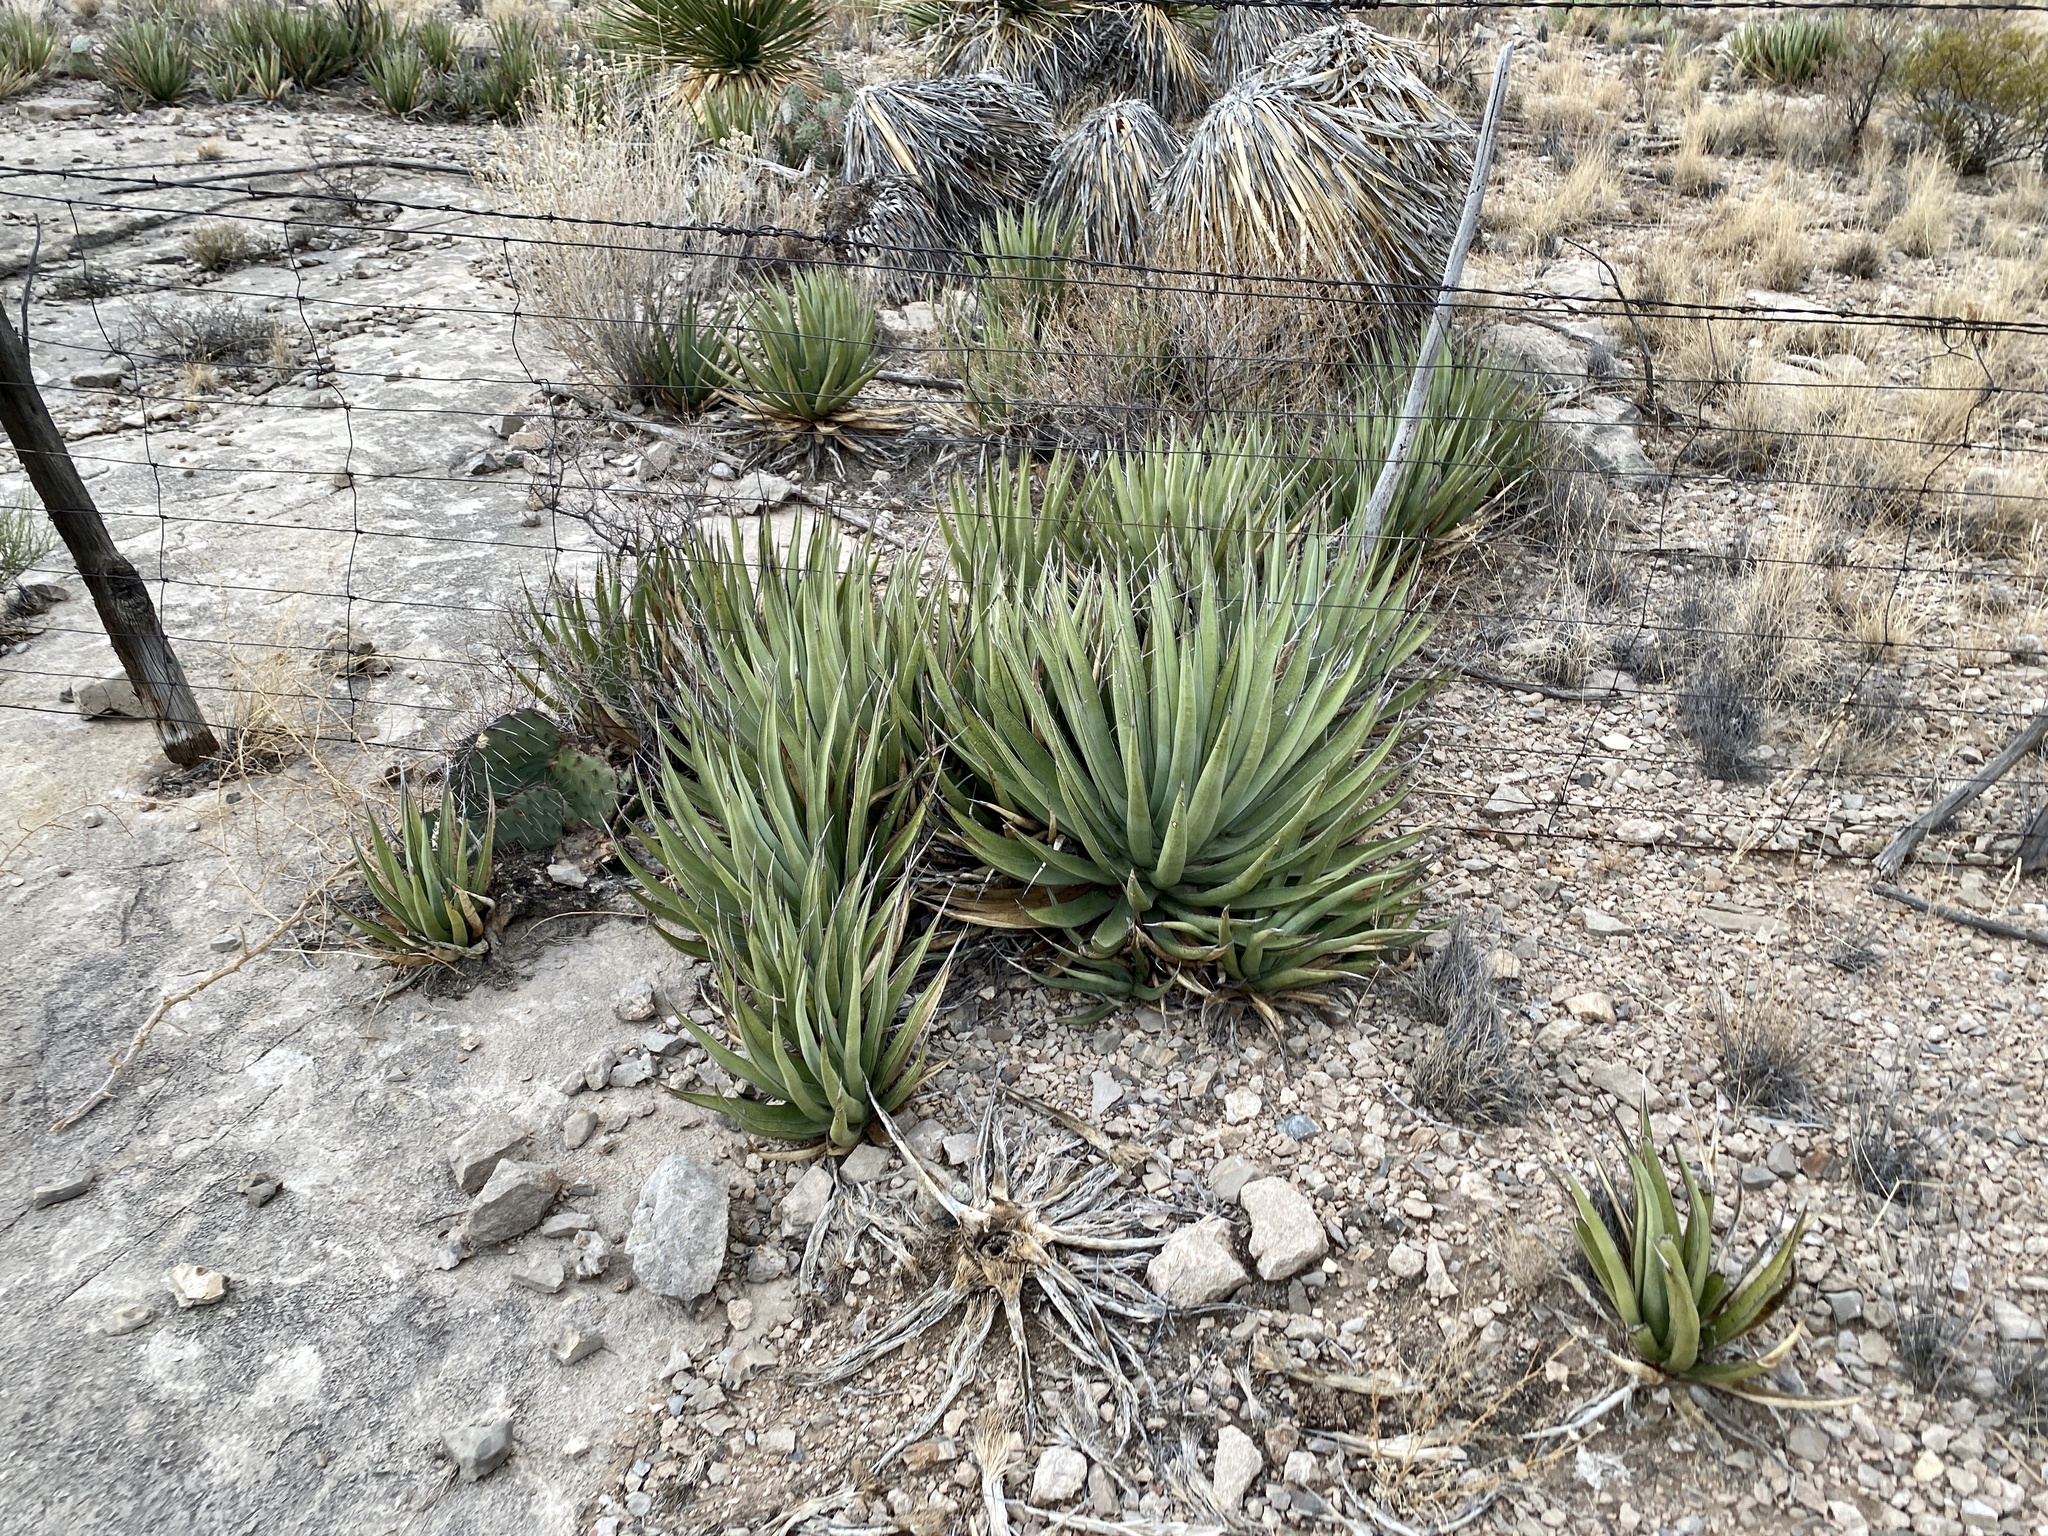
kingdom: Plantae
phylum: Tracheophyta
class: Liliopsida
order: Asparagales
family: Asparagaceae
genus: Agave
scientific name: Agave lechuguilla
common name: Lecheguilla agave
